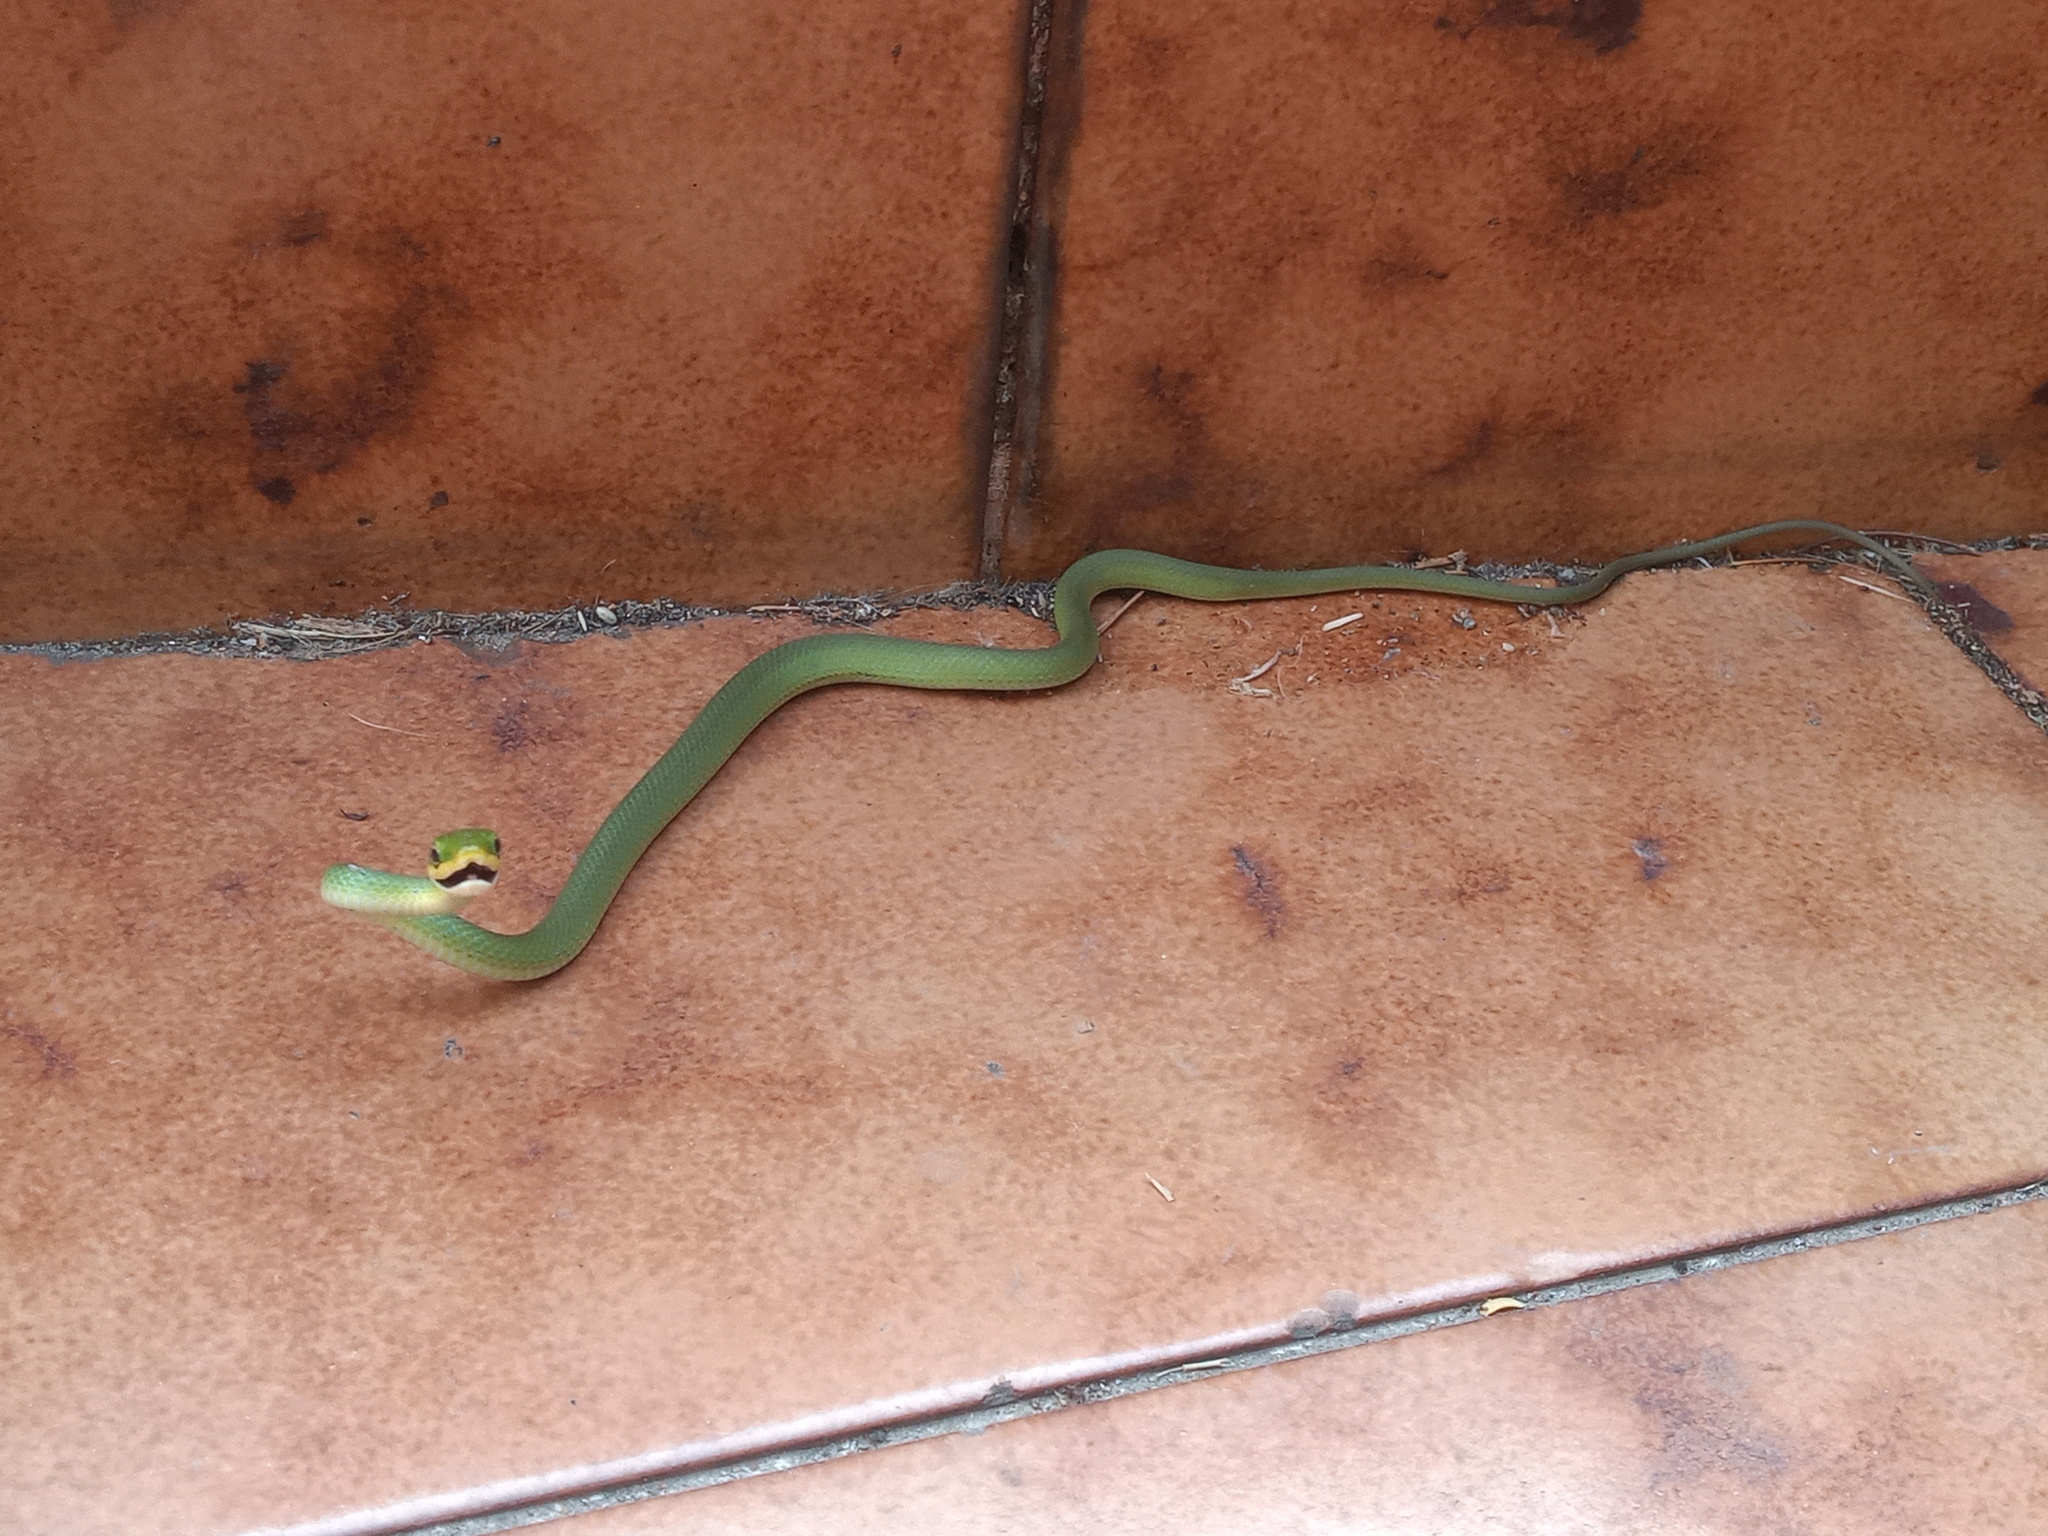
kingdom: Animalia
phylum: Chordata
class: Squamata
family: Colubridae
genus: Opheodrys
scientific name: Opheodrys aestivus
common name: Rough greensnake
